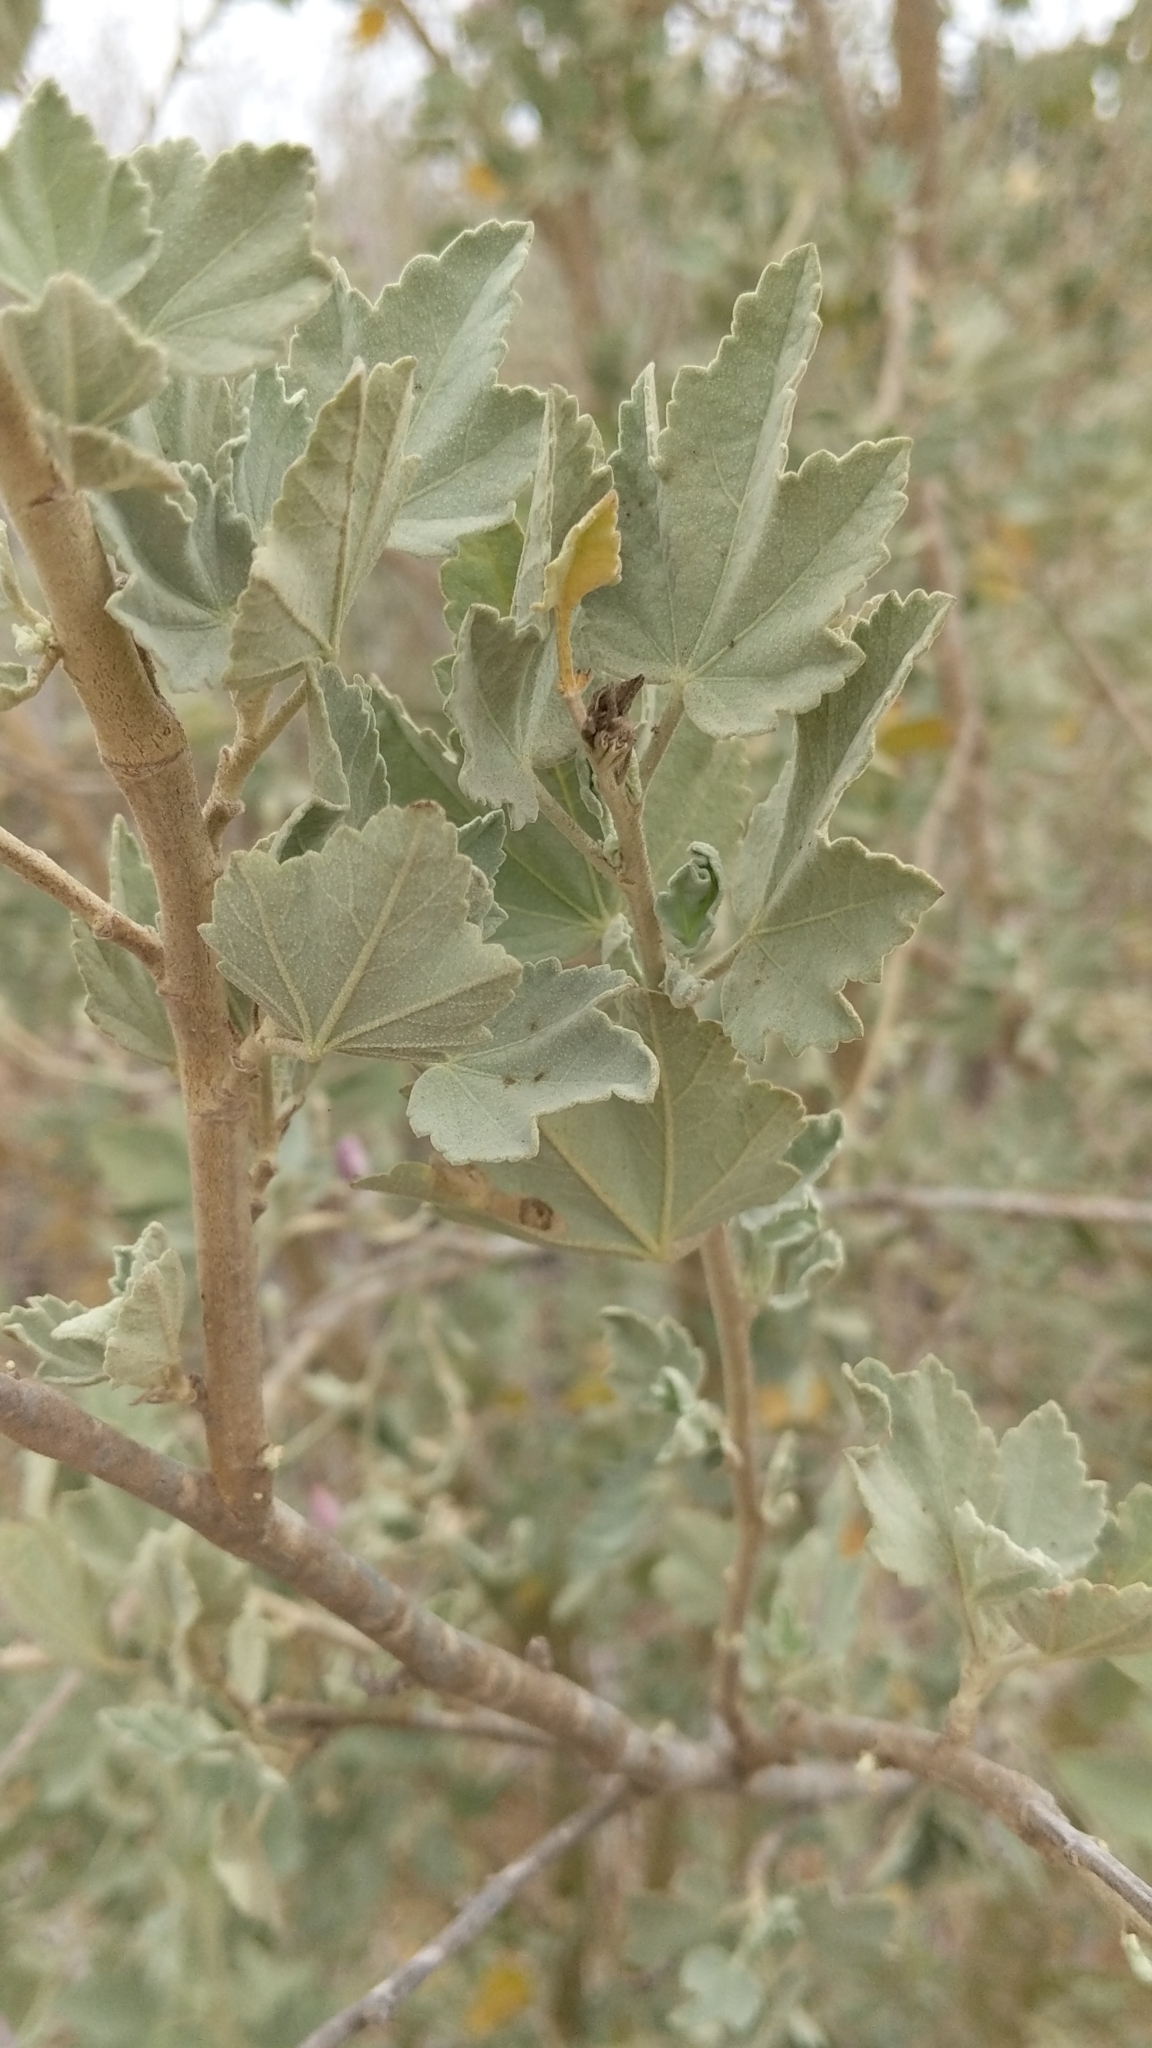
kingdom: Plantae
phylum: Tracheophyta
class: Magnoliopsida
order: Malvales
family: Malvaceae
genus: Malacothamnus
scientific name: Malacothamnus fasciculatus
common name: Sant cruz island bush-mallow
